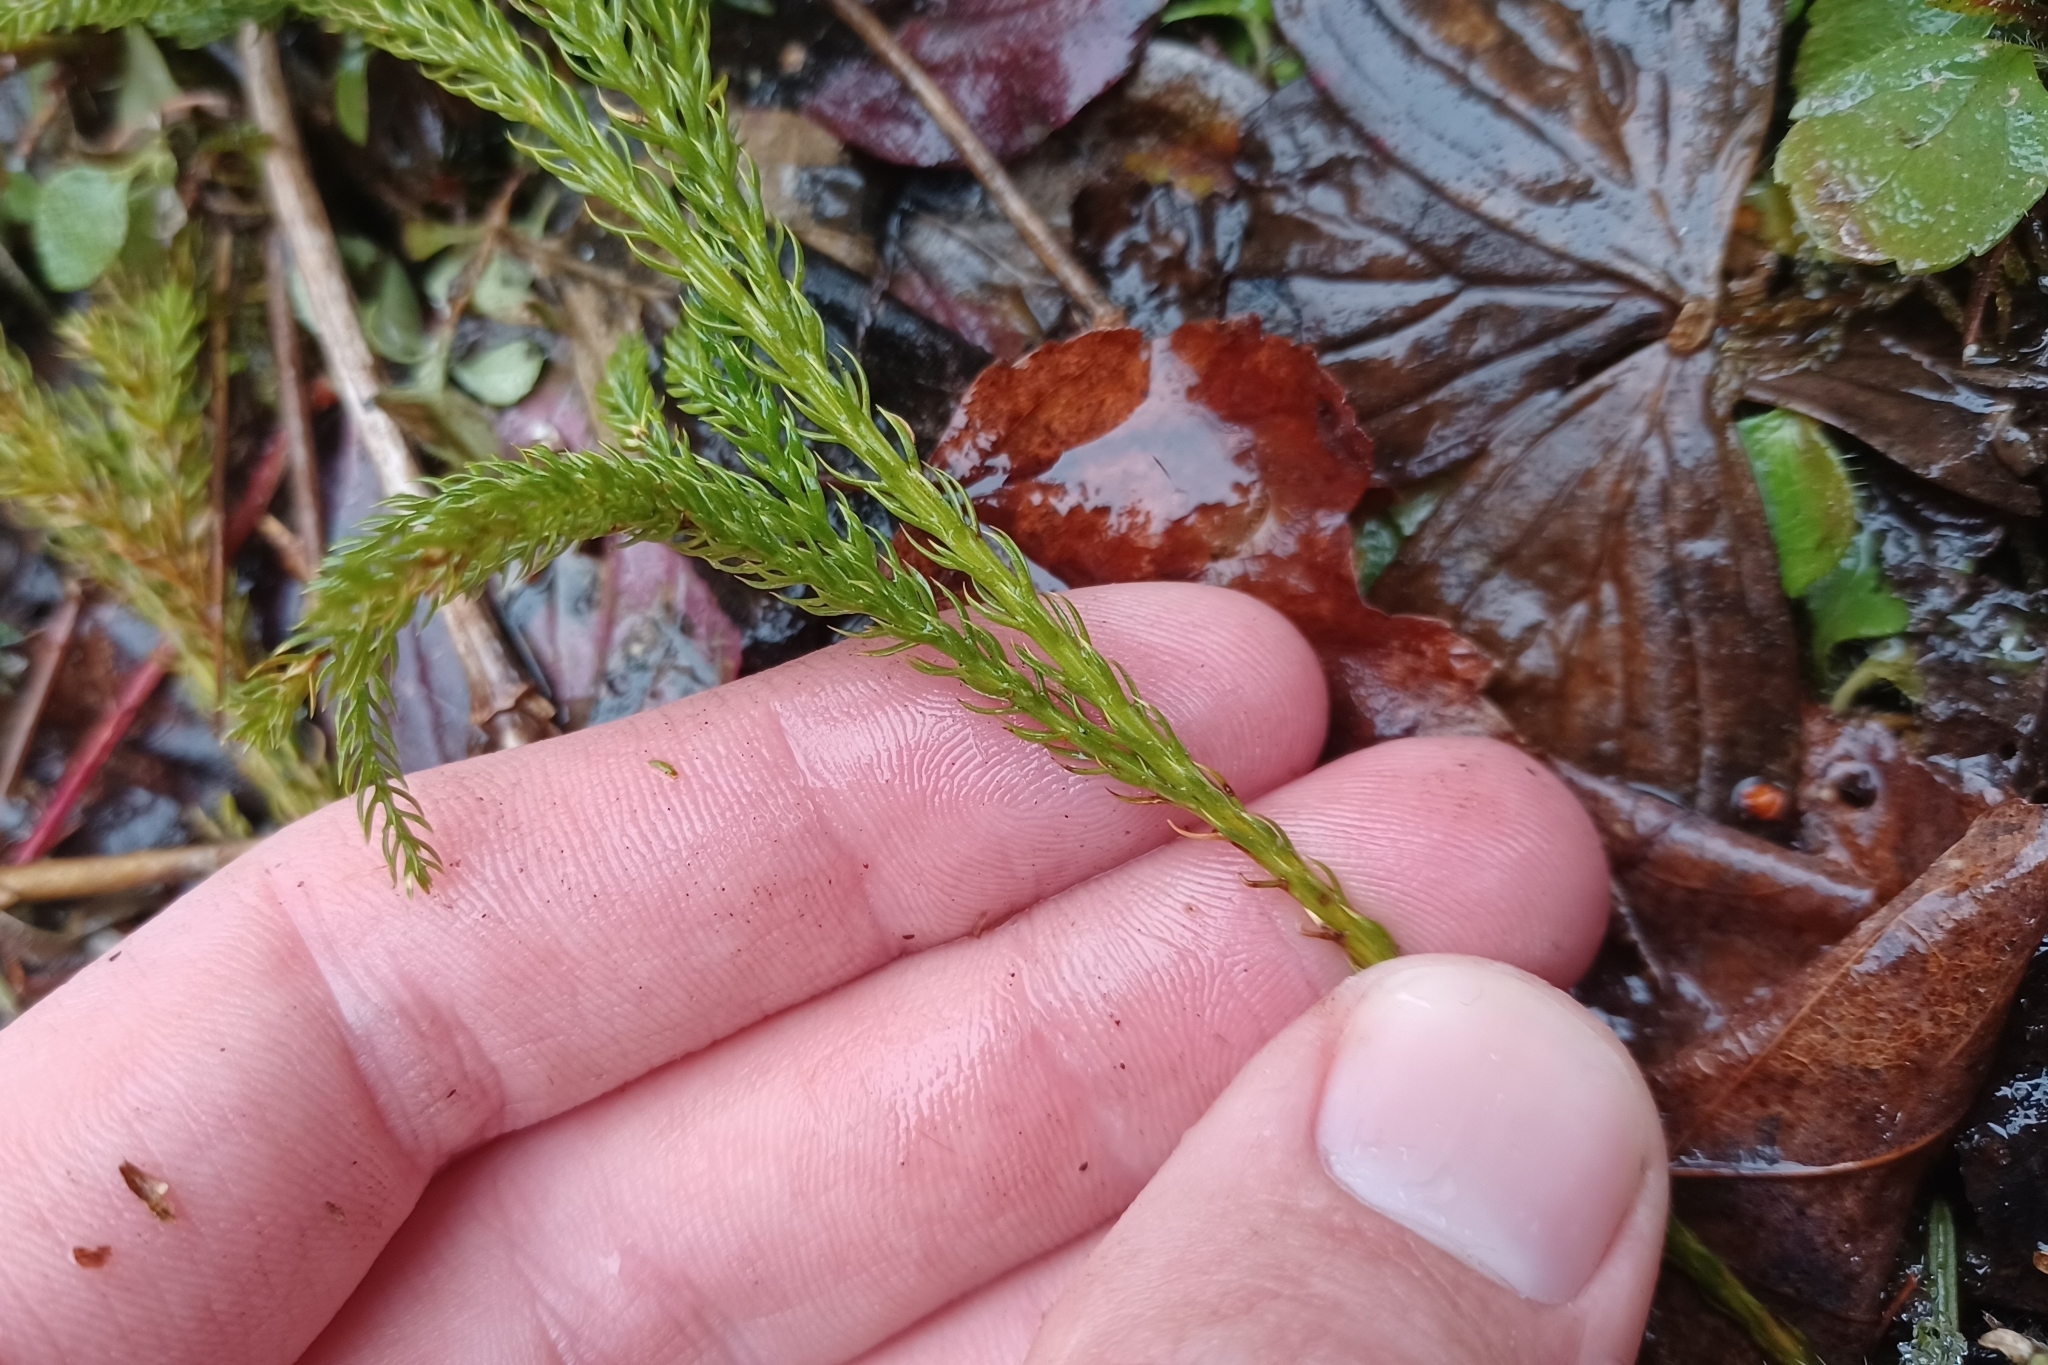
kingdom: Plantae
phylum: Tracheophyta
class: Lycopodiopsida
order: Lycopodiales
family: Lycopodiaceae
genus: Dendrolycopodium
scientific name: Dendrolycopodium hickeyi
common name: Hickey's clubmoss
